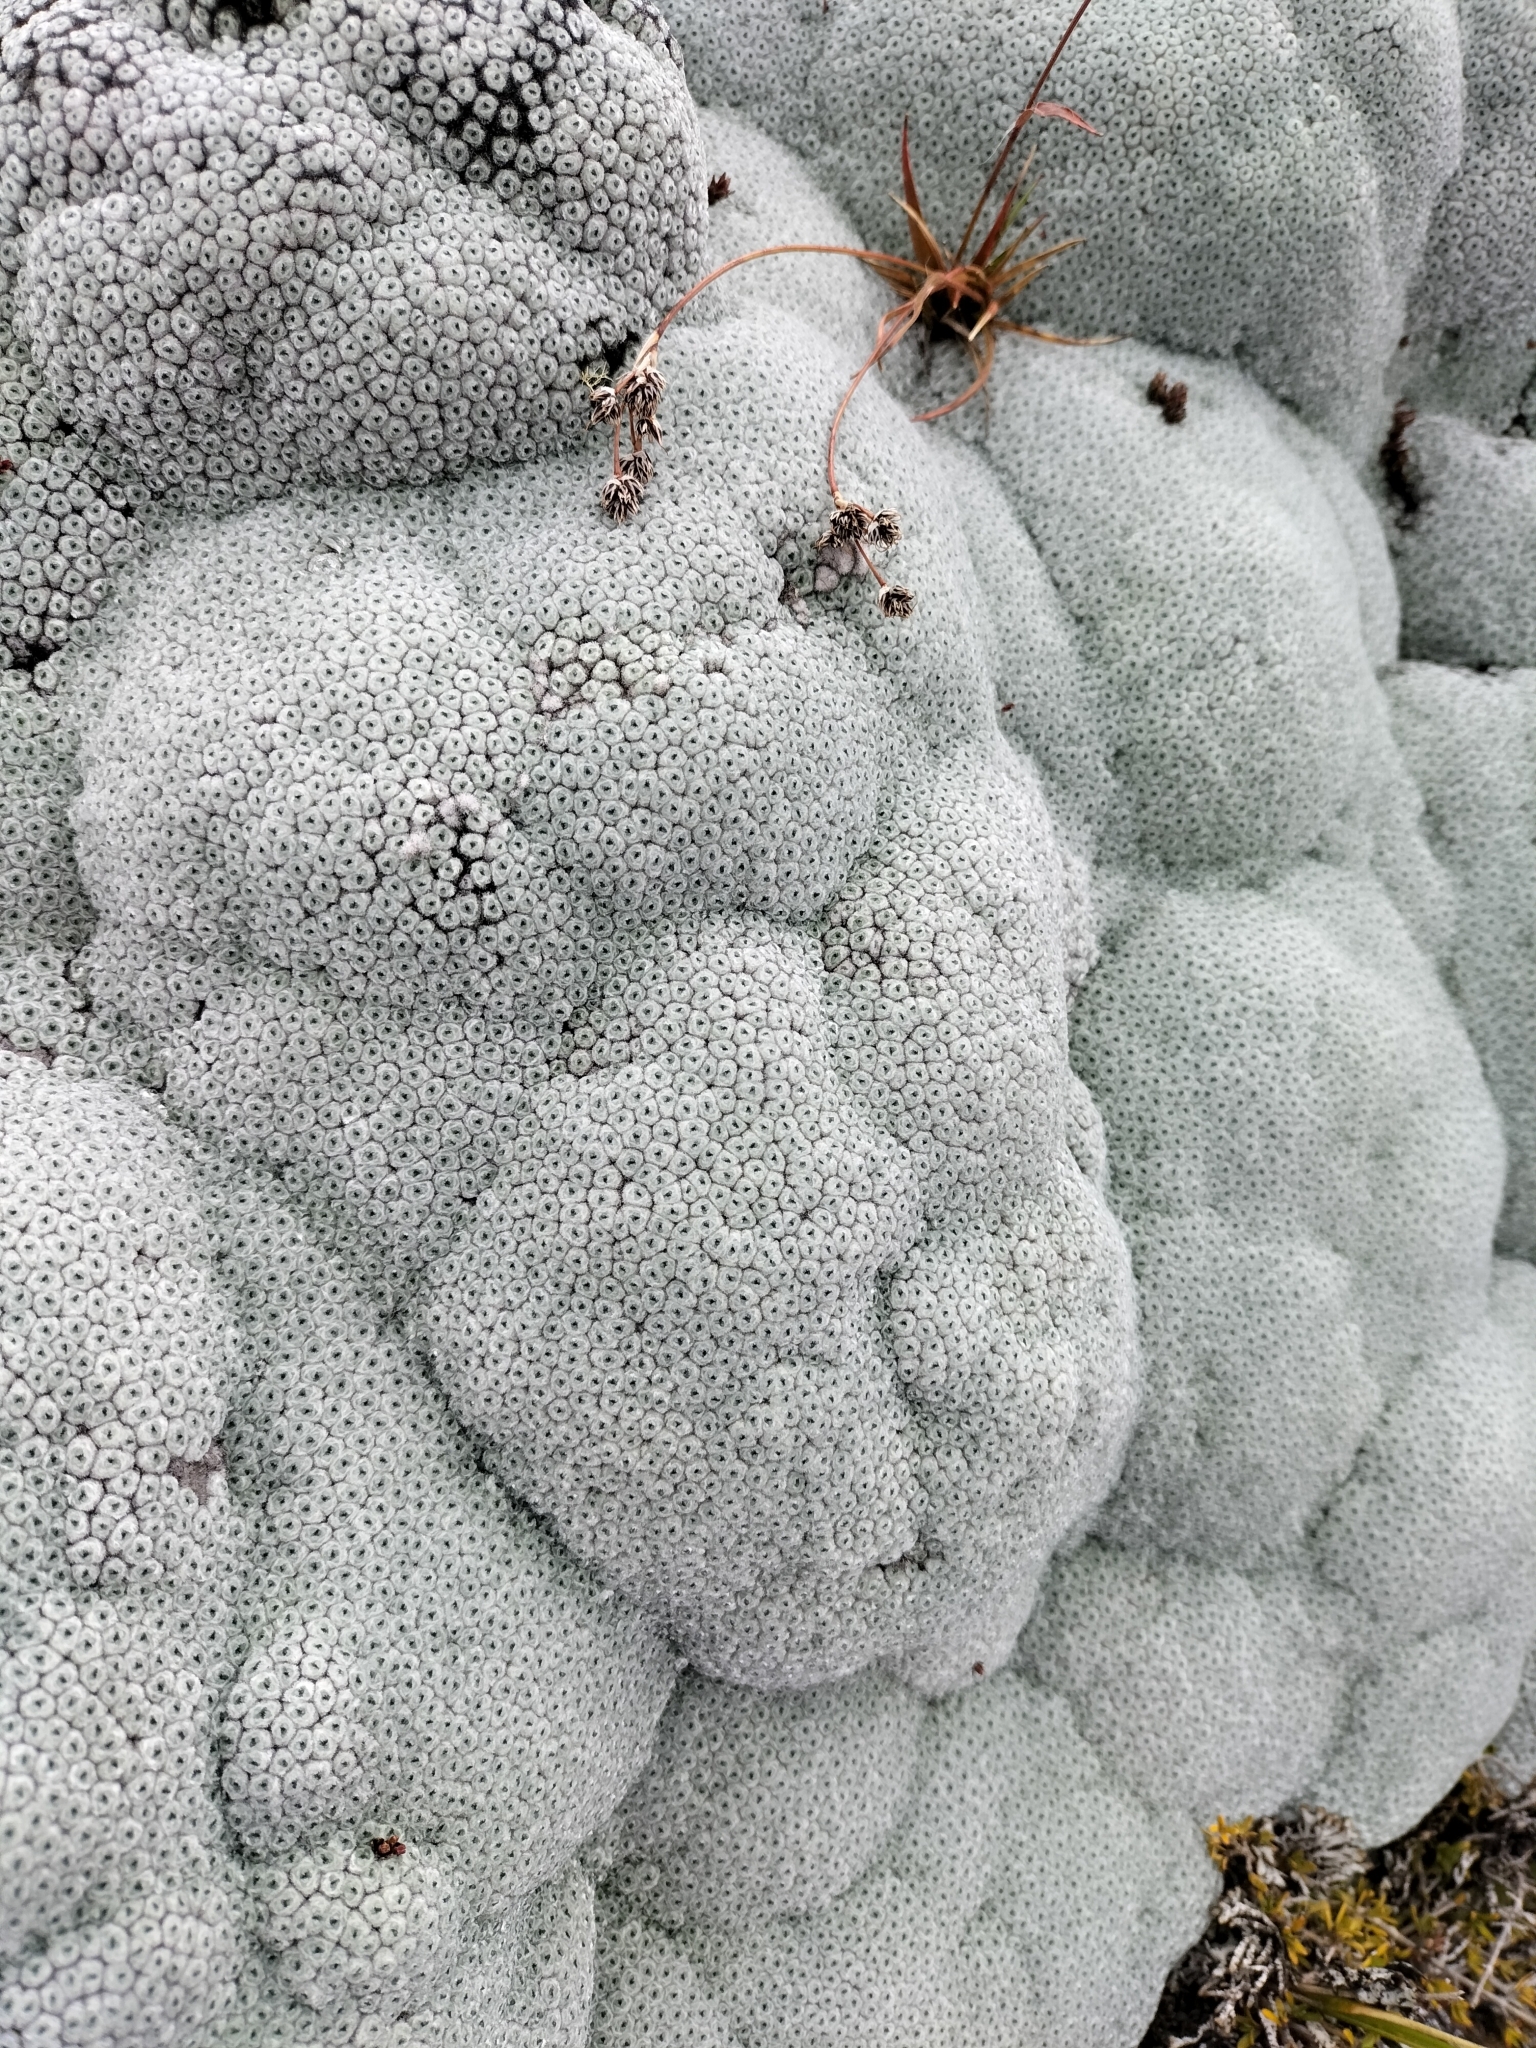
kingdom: Plantae
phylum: Tracheophyta
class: Magnoliopsida
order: Asterales
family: Asteraceae
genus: Raoulia
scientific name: Raoulia eximia
